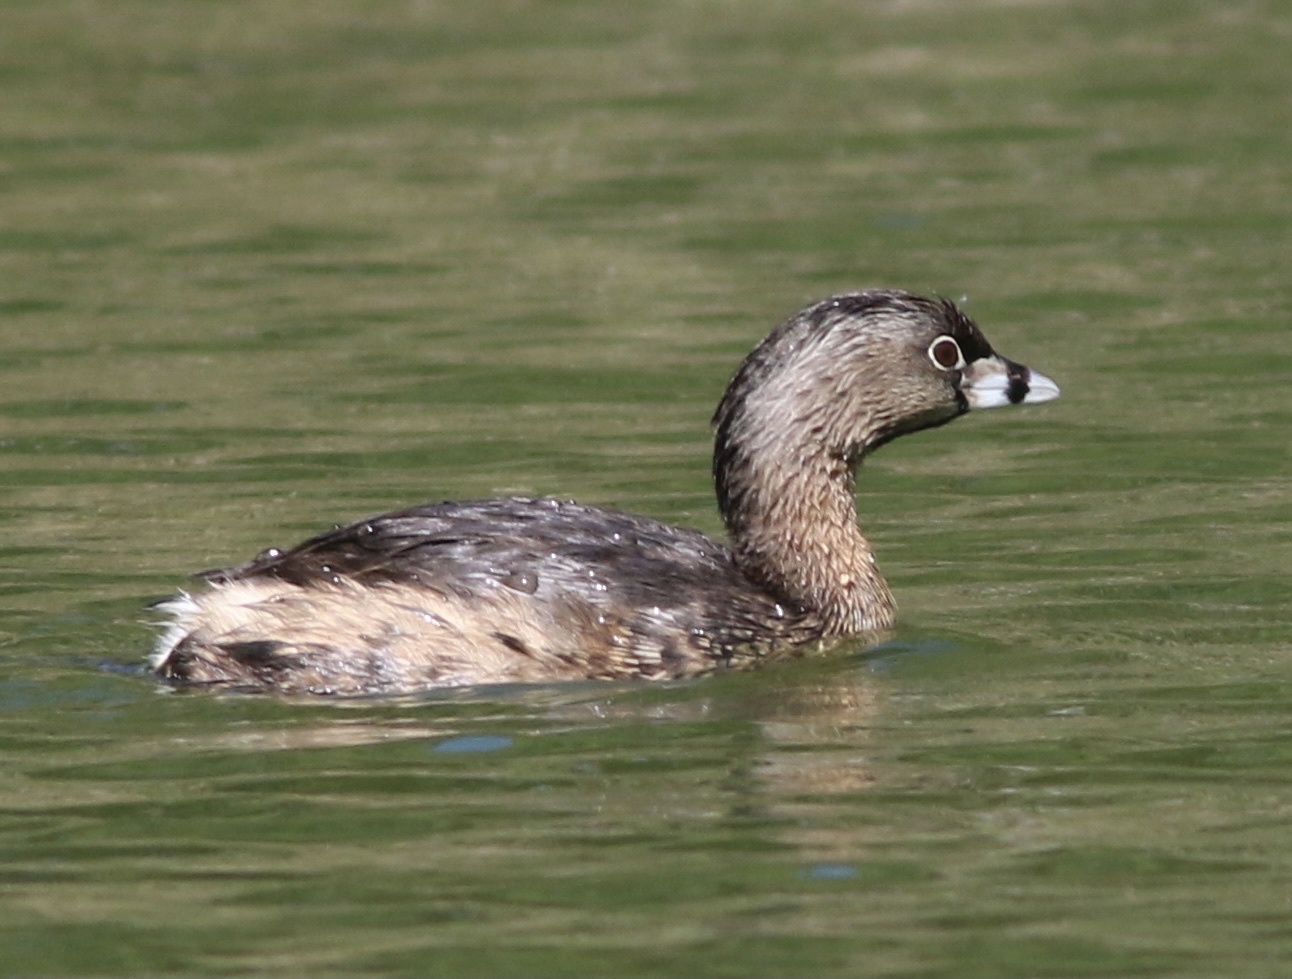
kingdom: Animalia
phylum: Chordata
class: Aves
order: Podicipediformes
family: Podicipedidae
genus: Podilymbus
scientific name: Podilymbus podiceps
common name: Pied-billed grebe
